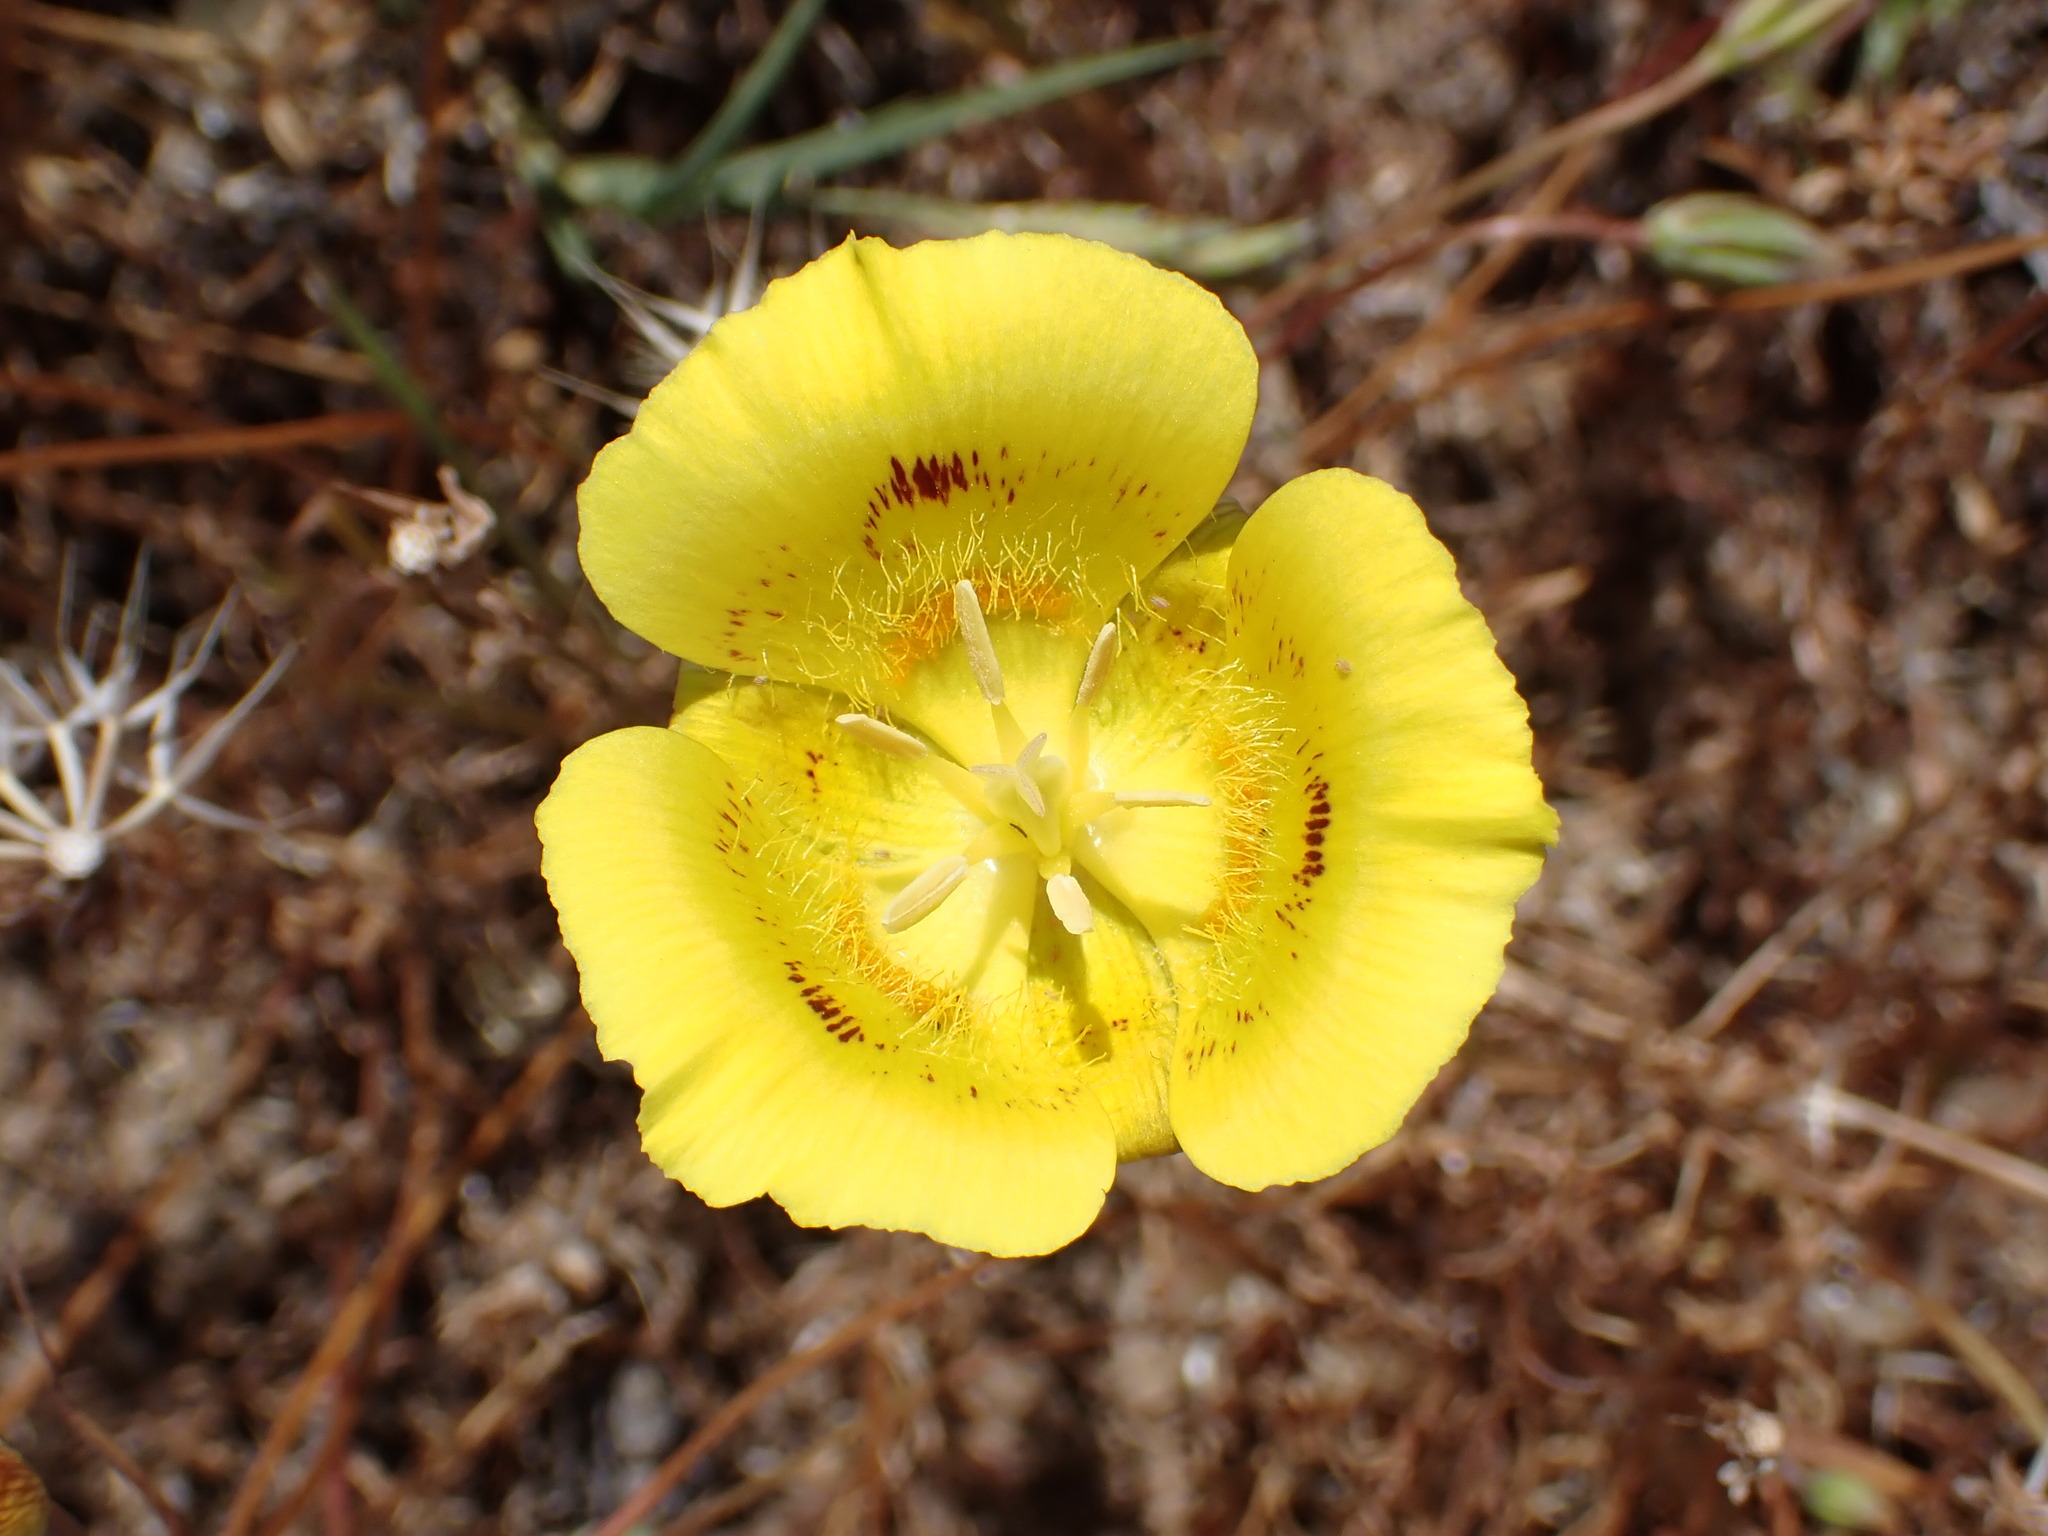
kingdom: Plantae
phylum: Tracheophyta
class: Liliopsida
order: Liliales
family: Liliaceae
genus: Calochortus
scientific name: Calochortus luteus
